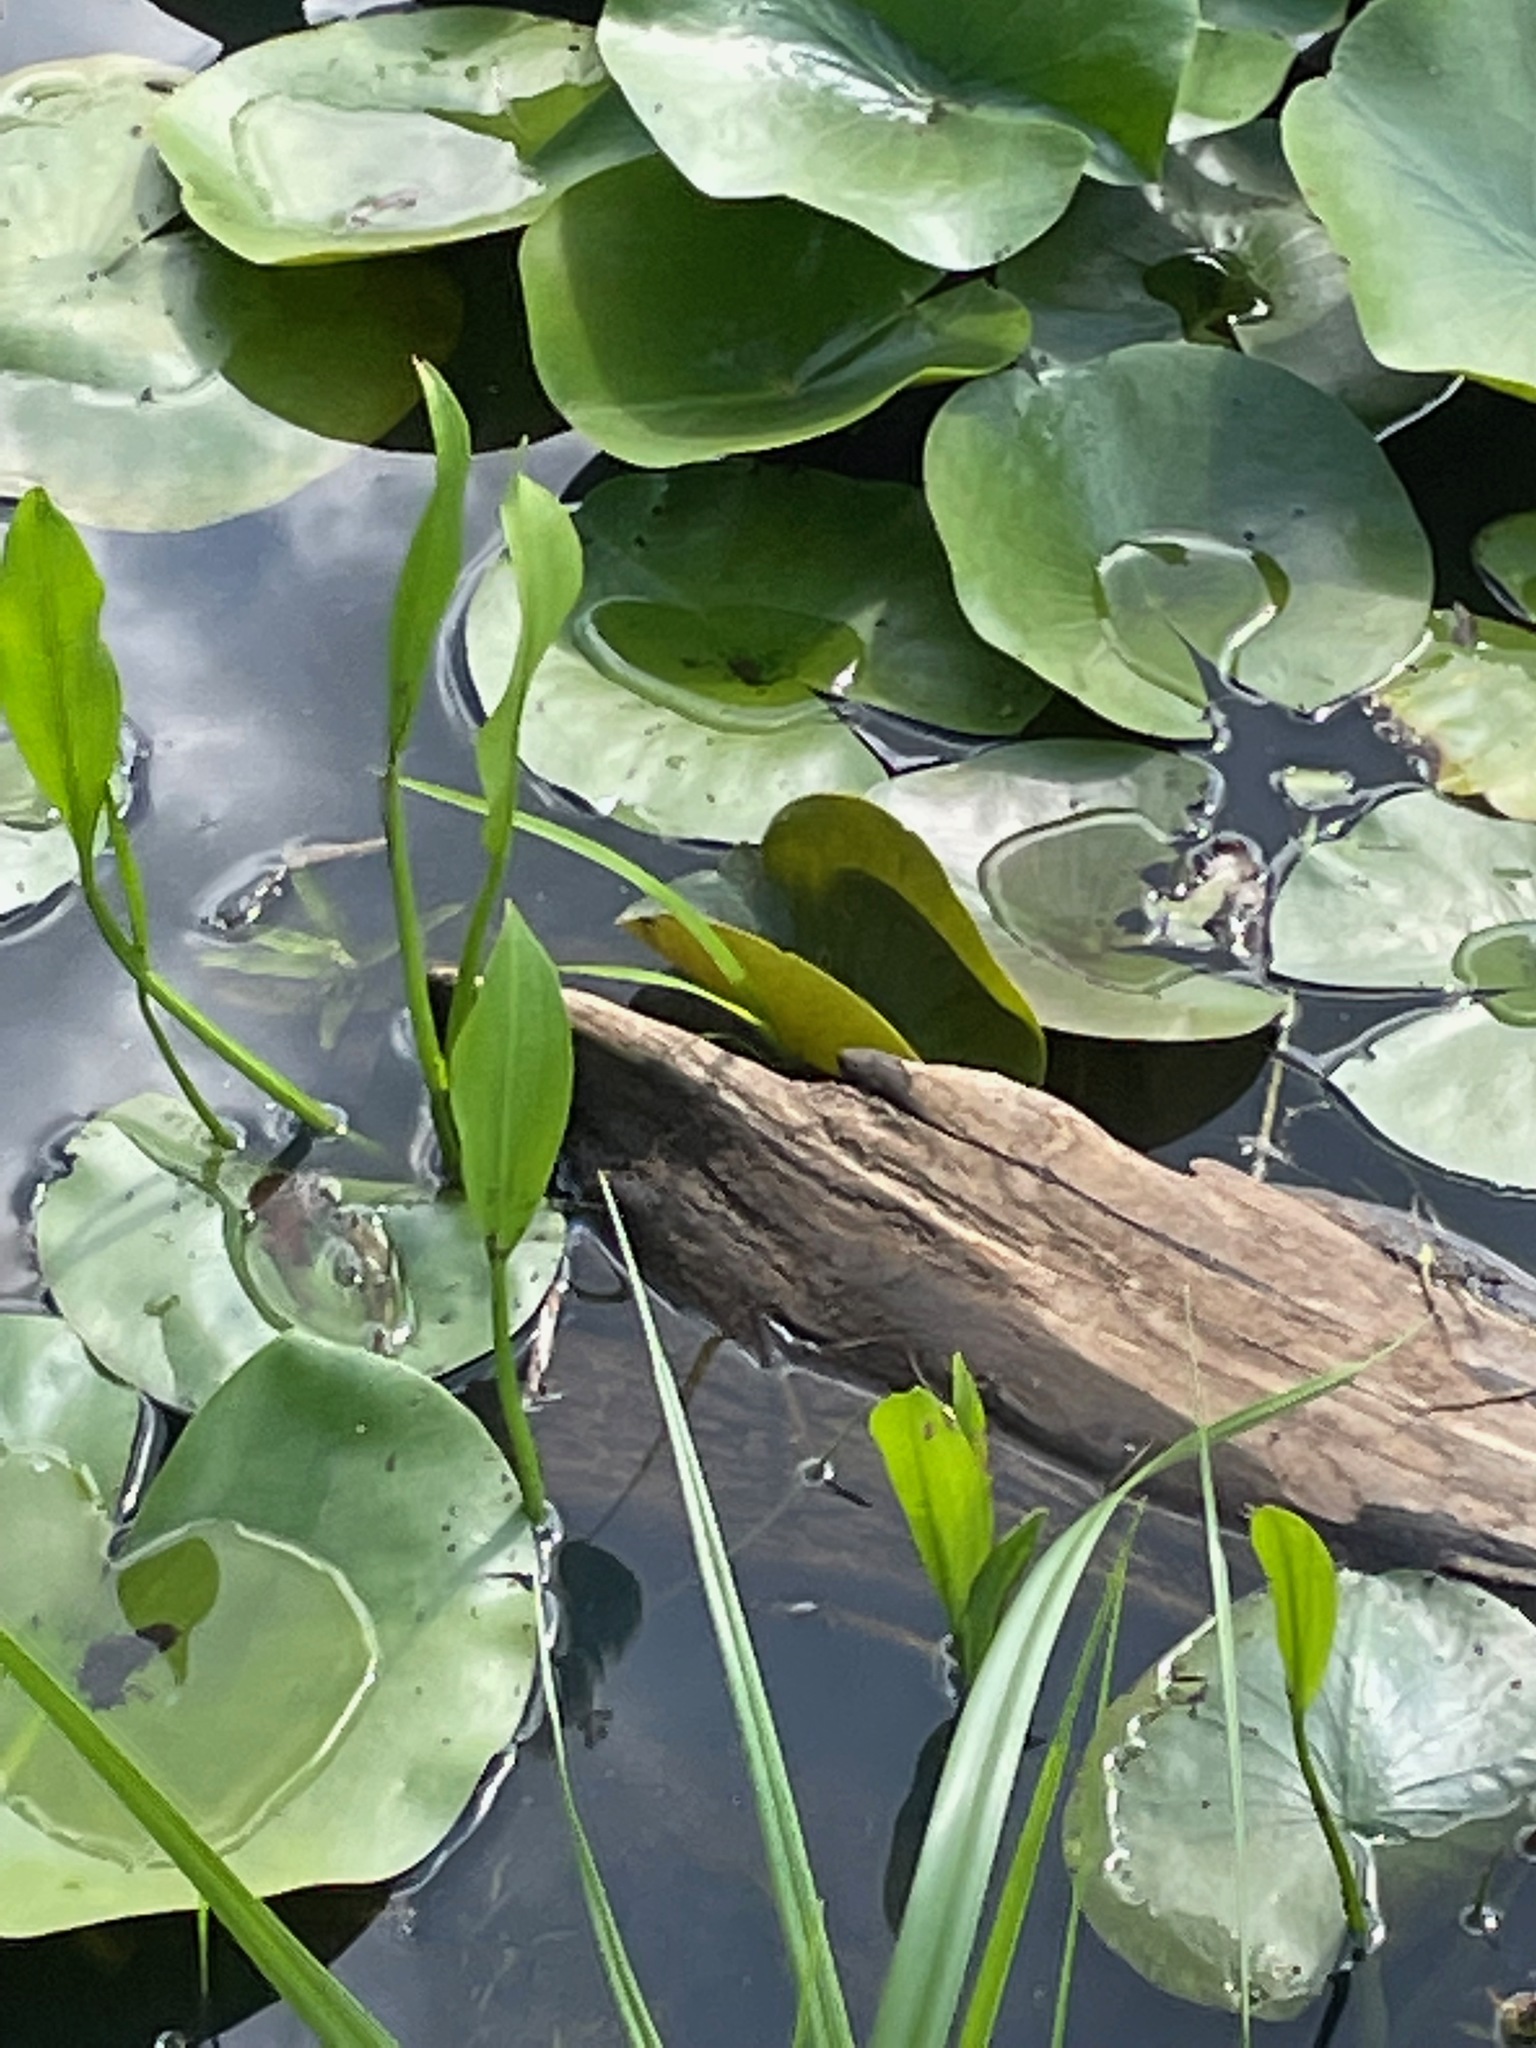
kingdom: Plantae
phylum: Tracheophyta
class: Magnoliopsida
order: Nymphaeales
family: Nymphaeaceae
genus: Nymphaea
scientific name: Nymphaea odorata
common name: Fragrant water-lily
